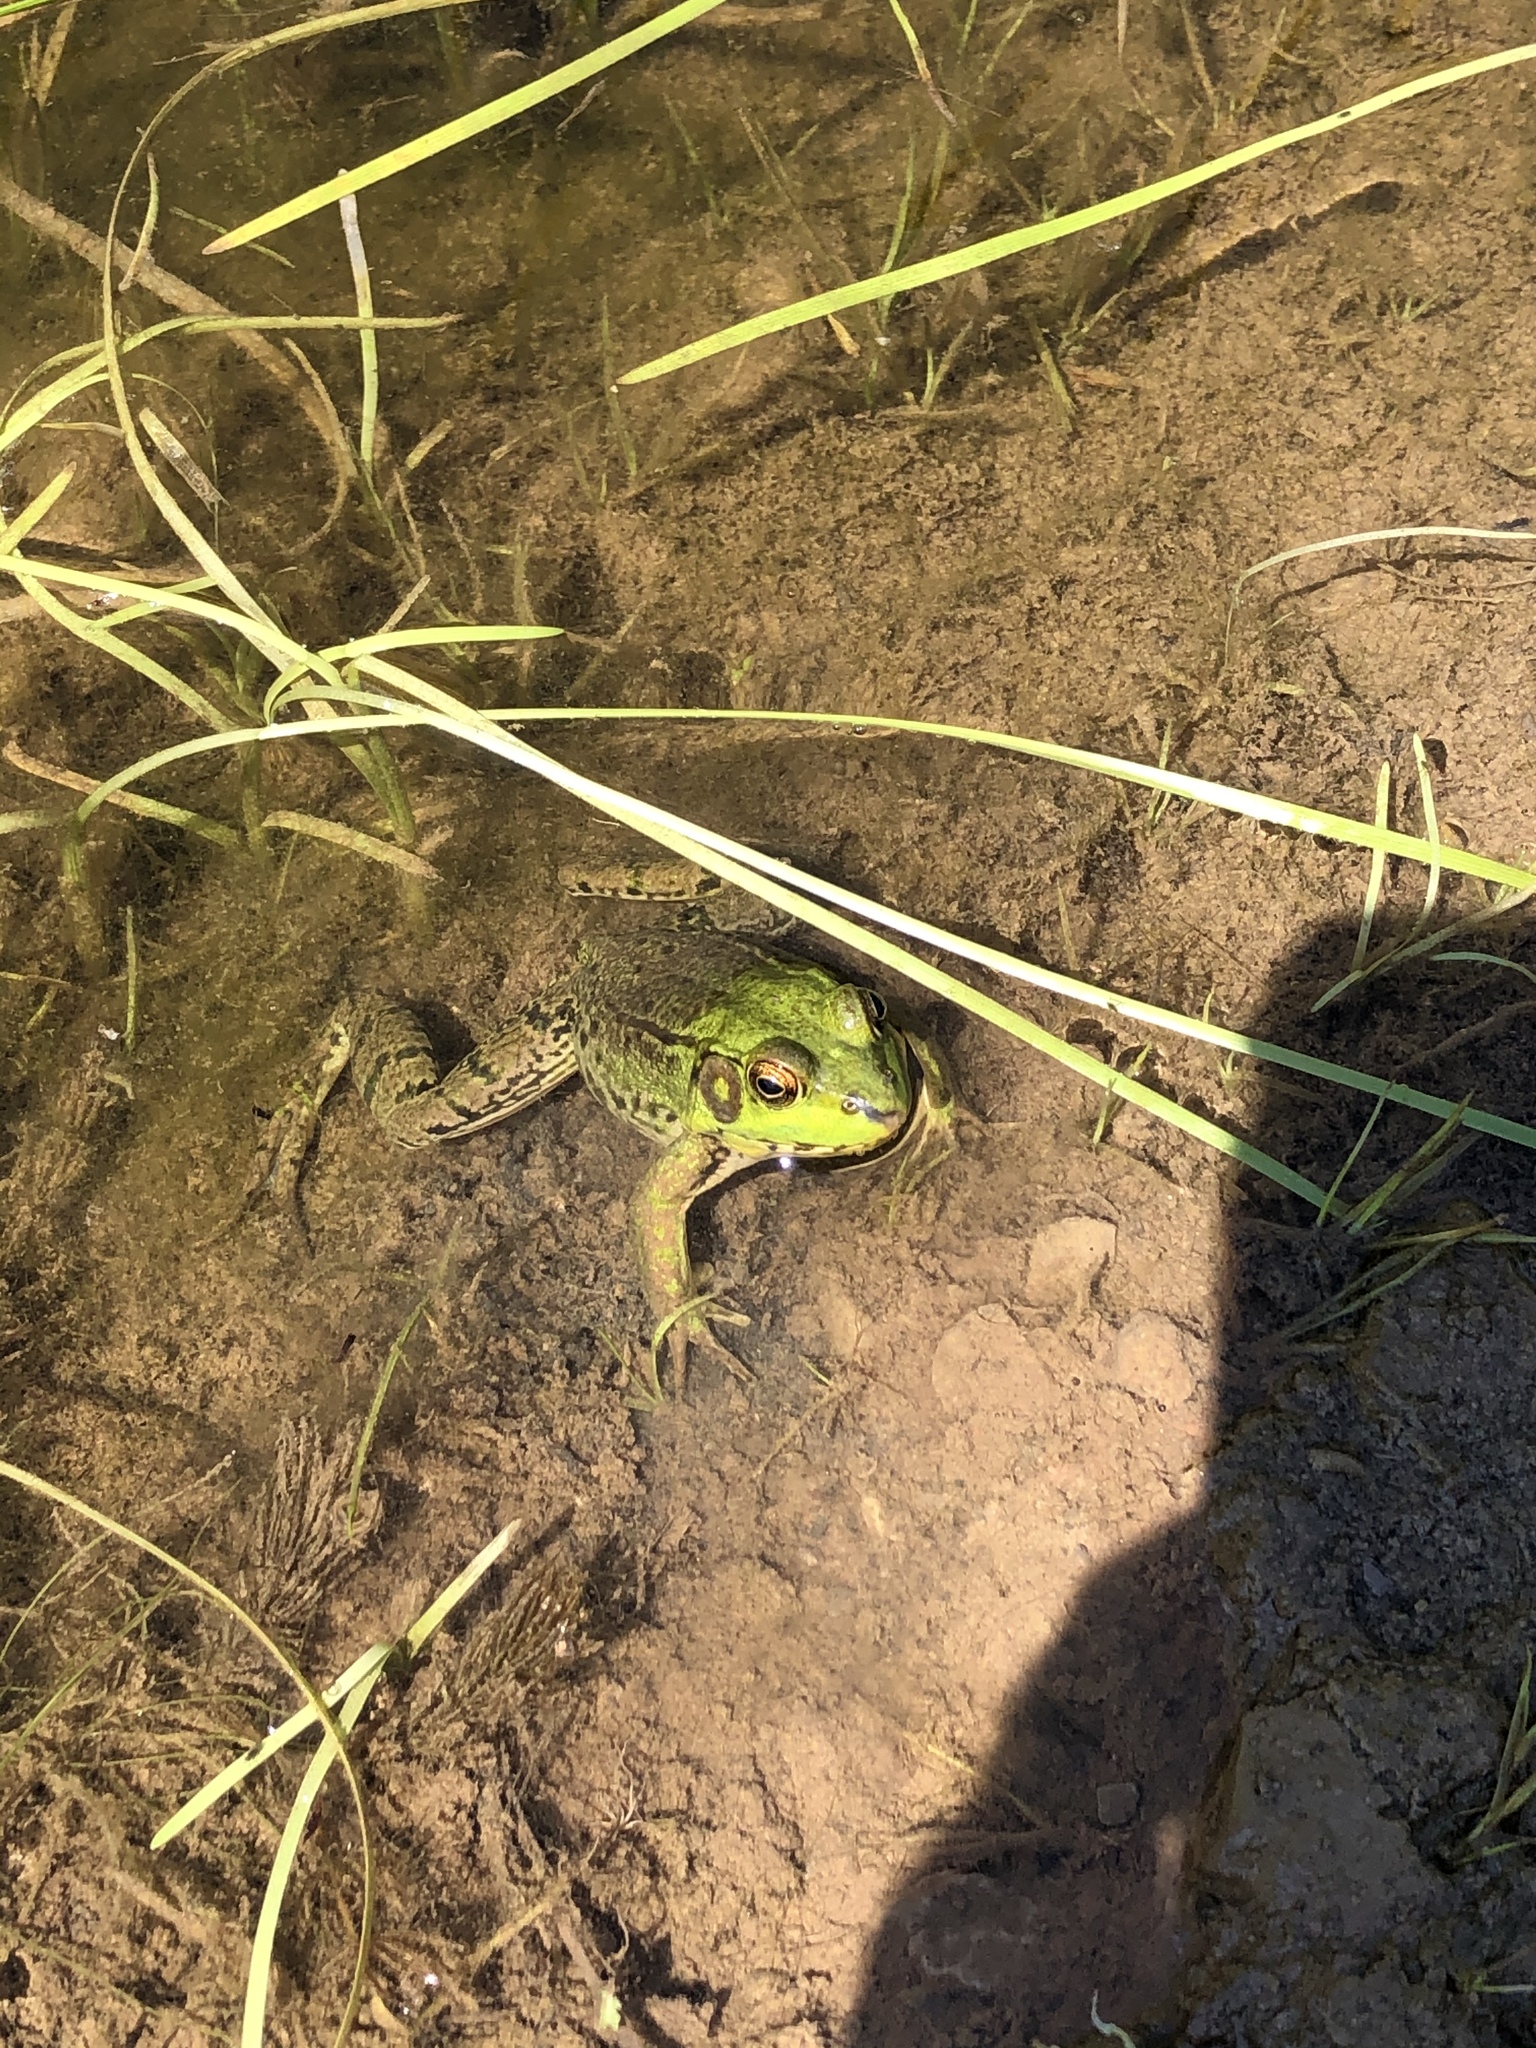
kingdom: Animalia
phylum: Chordata
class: Amphibia
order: Anura
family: Ranidae
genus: Lithobates
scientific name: Lithobates clamitans
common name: Green frog
